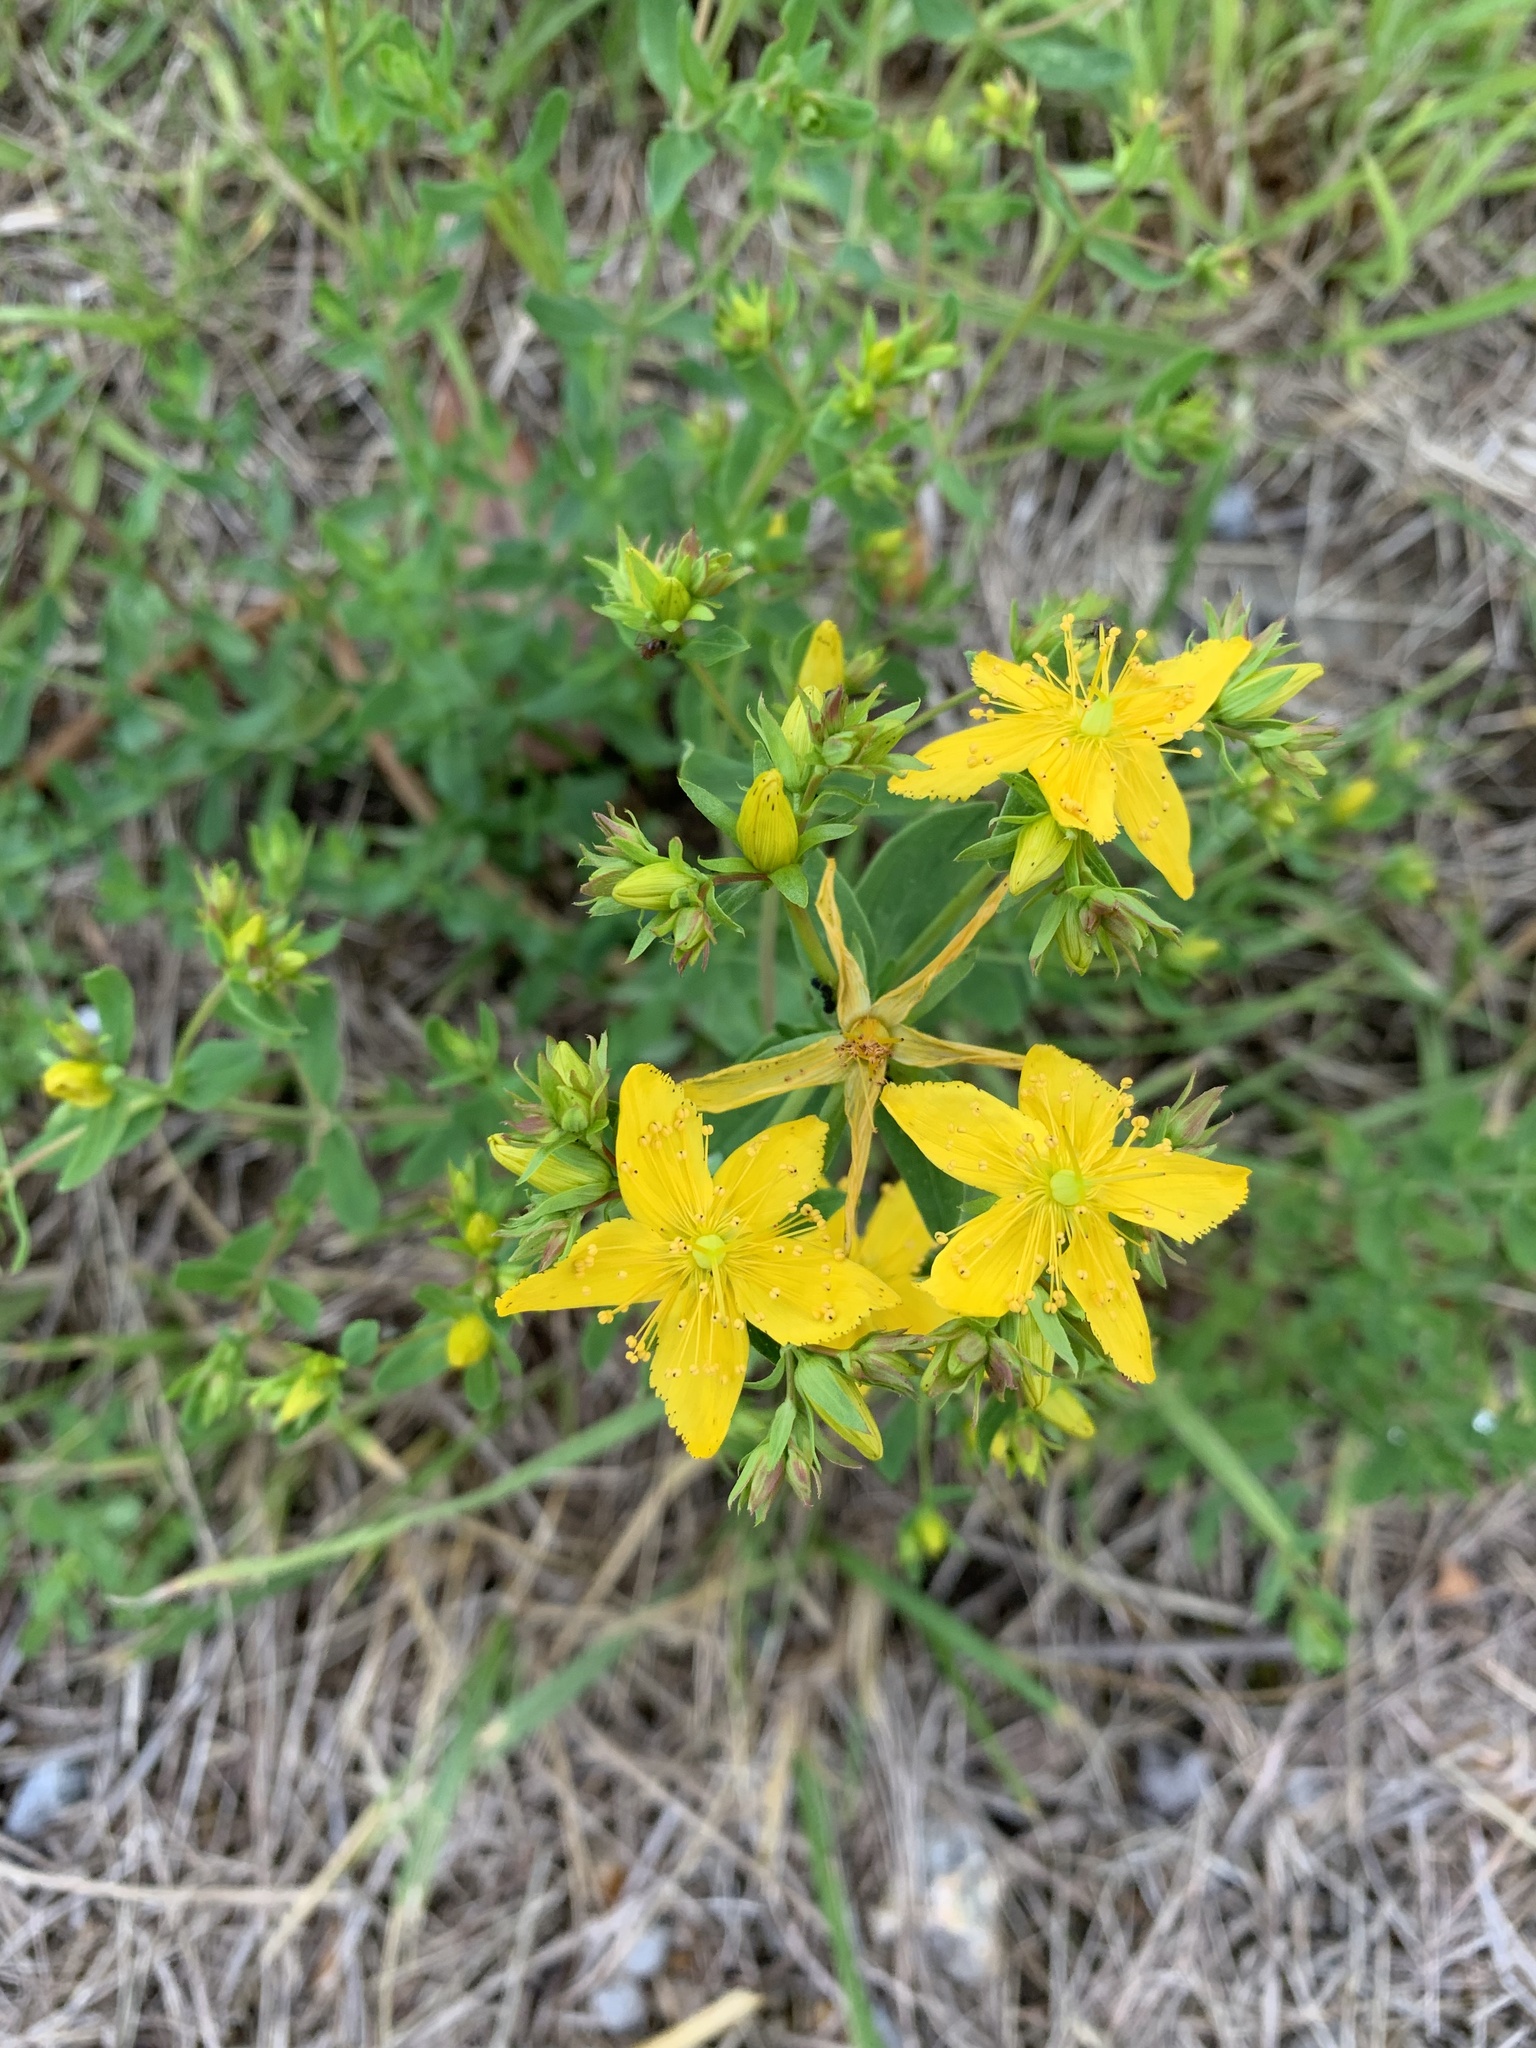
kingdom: Plantae
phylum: Tracheophyta
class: Magnoliopsida
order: Malpighiales
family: Hypericaceae
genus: Hypericum
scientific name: Hypericum perforatum
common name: Common st. johnswort
